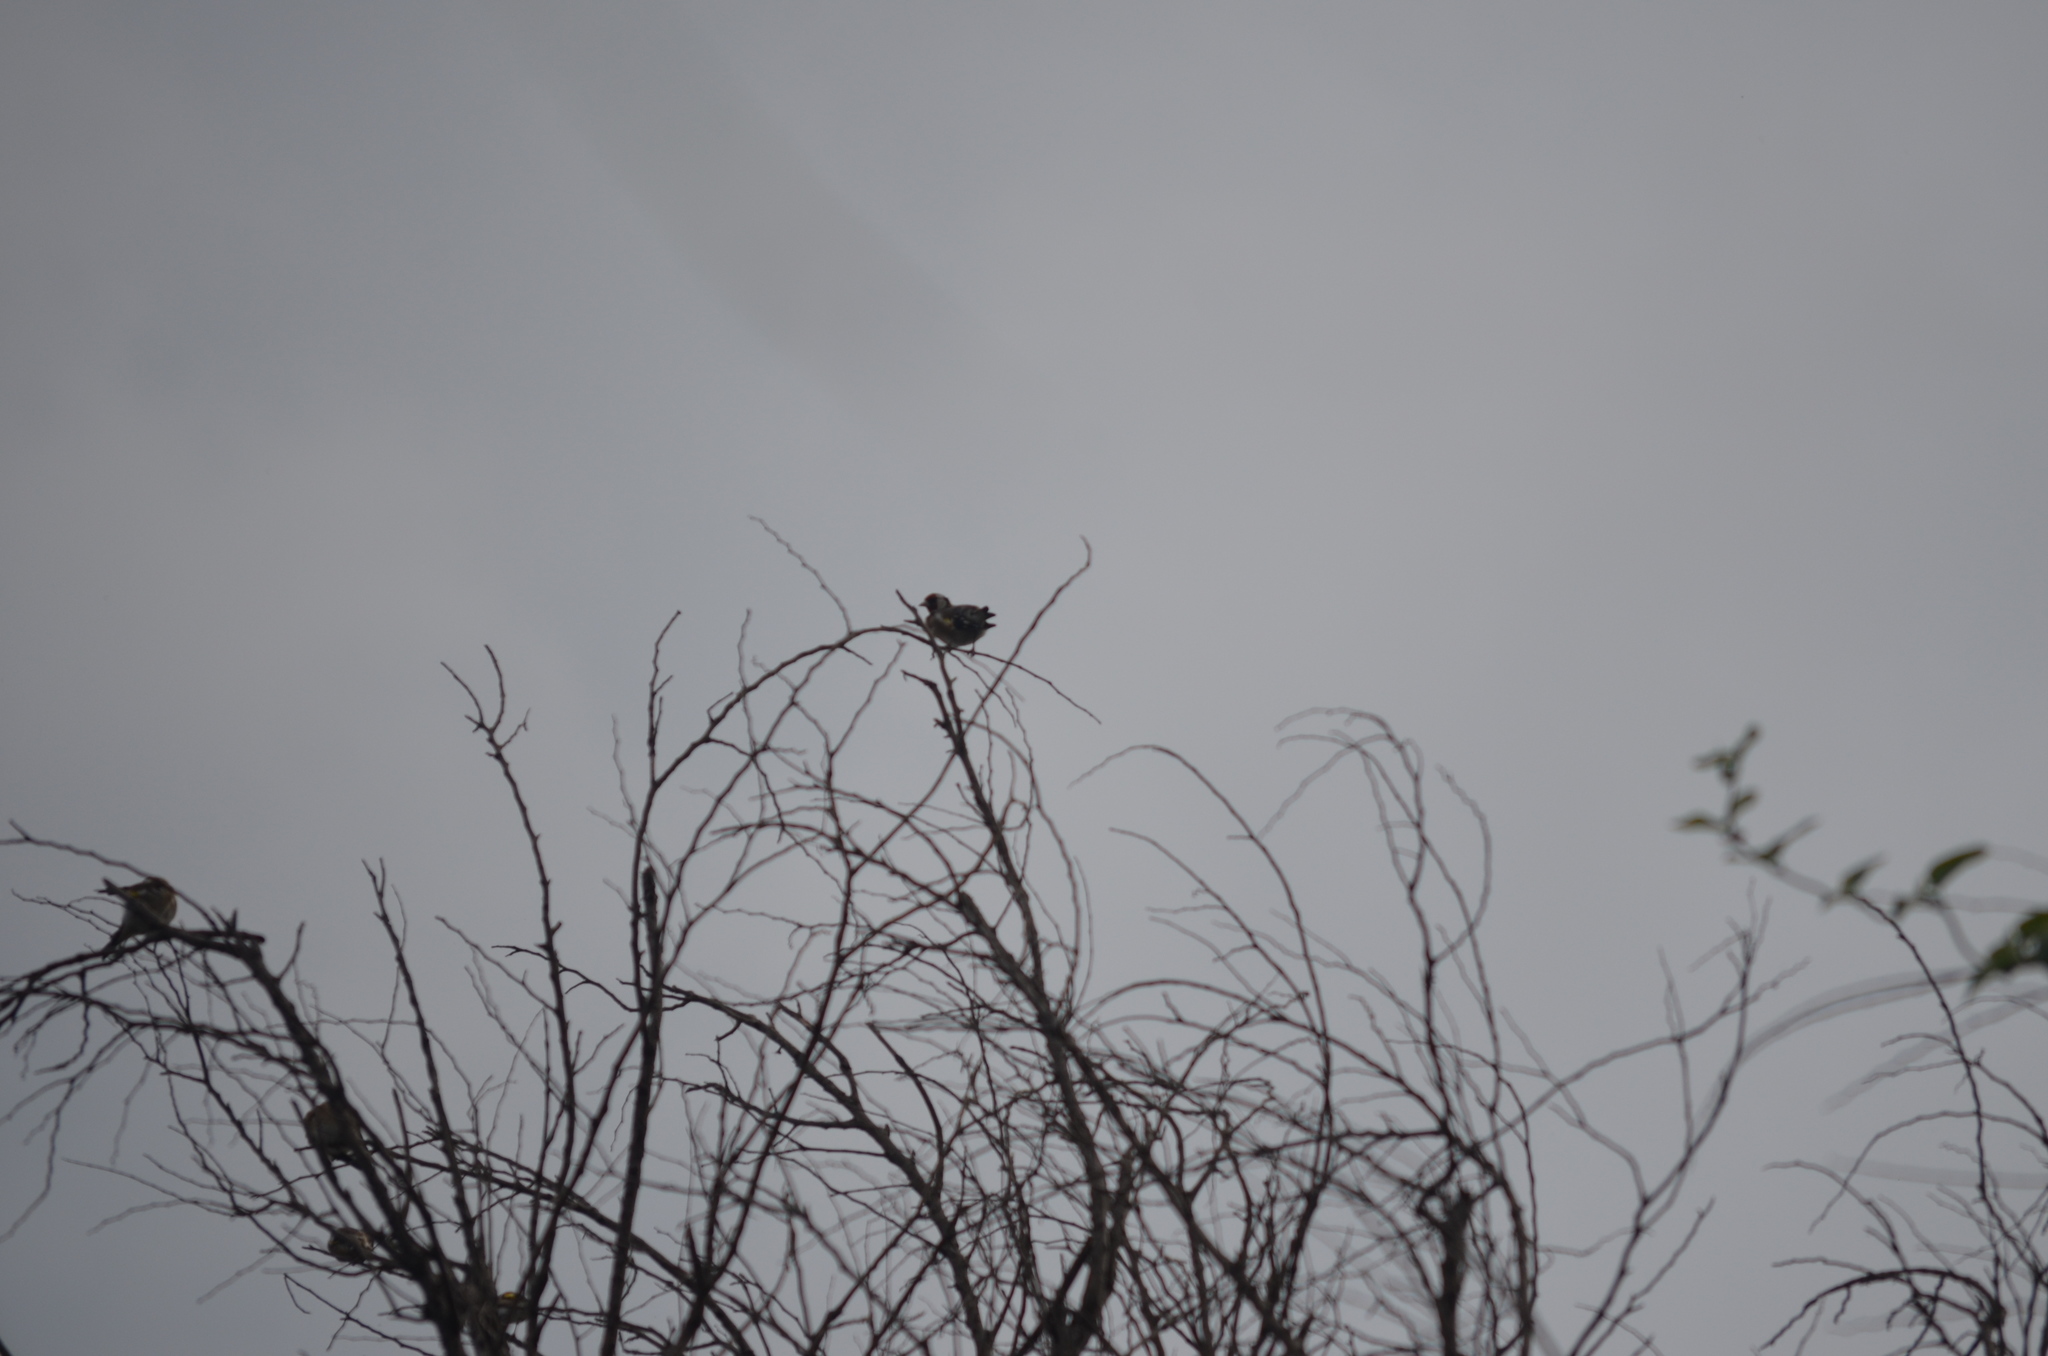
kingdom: Animalia
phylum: Chordata
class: Aves
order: Passeriformes
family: Fringillidae
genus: Carduelis
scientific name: Carduelis carduelis
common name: European goldfinch
